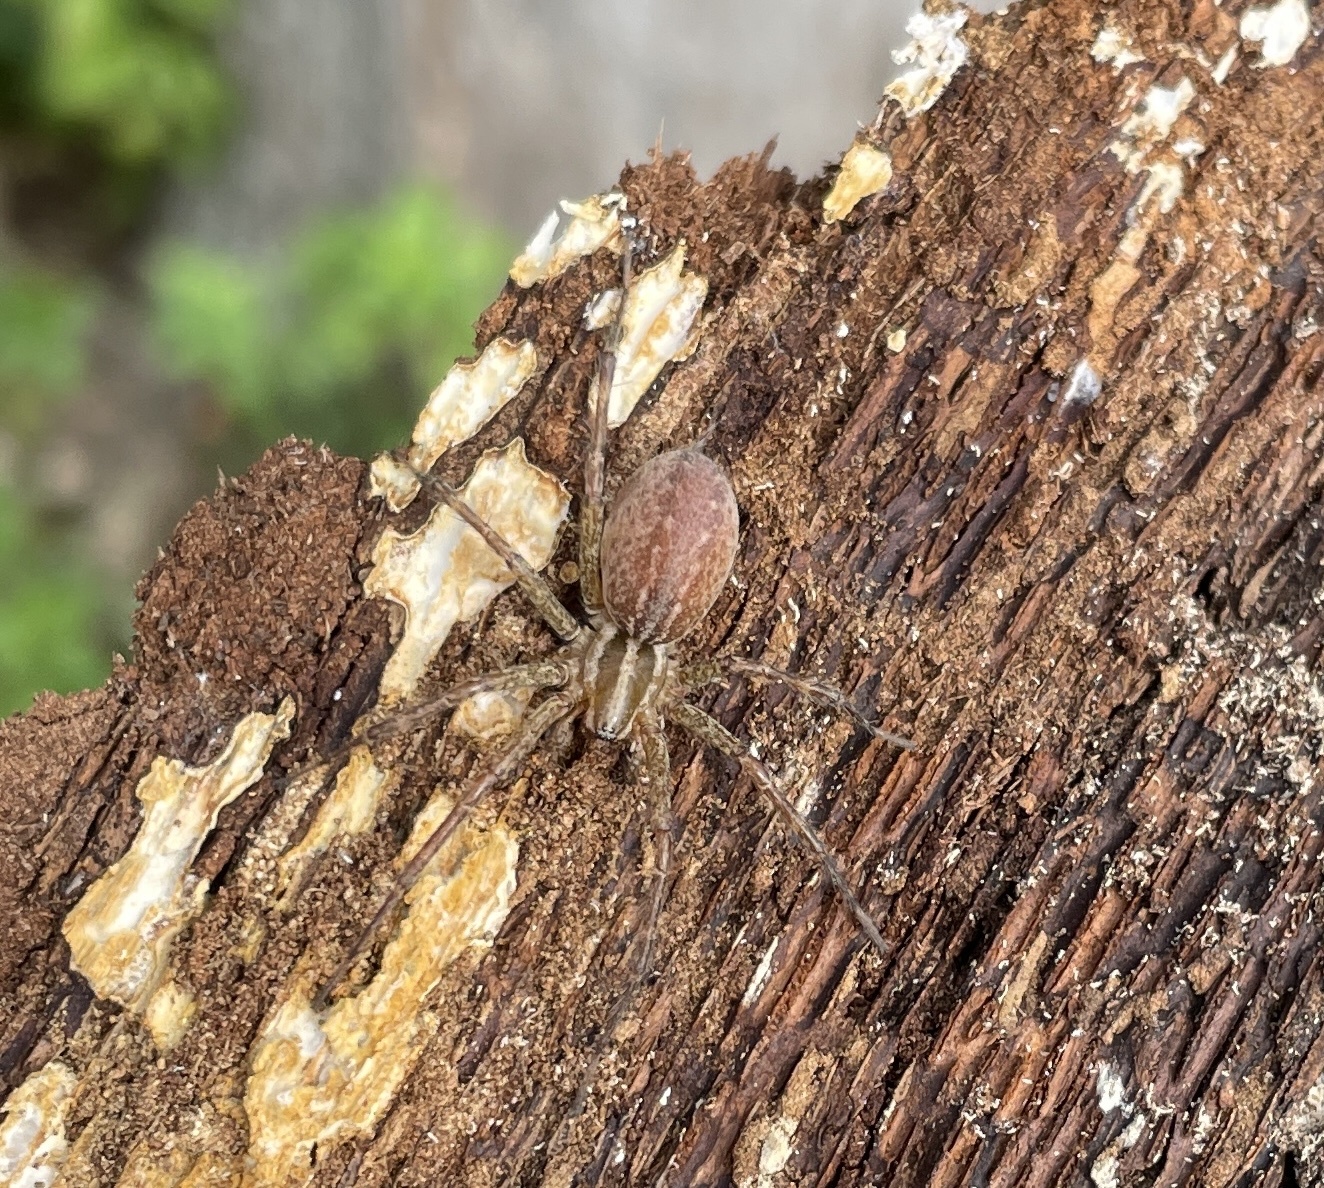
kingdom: Animalia
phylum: Arthropoda
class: Arachnida
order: Araneae
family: Agelenidae
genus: Agelenopsis
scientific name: Agelenopsis
